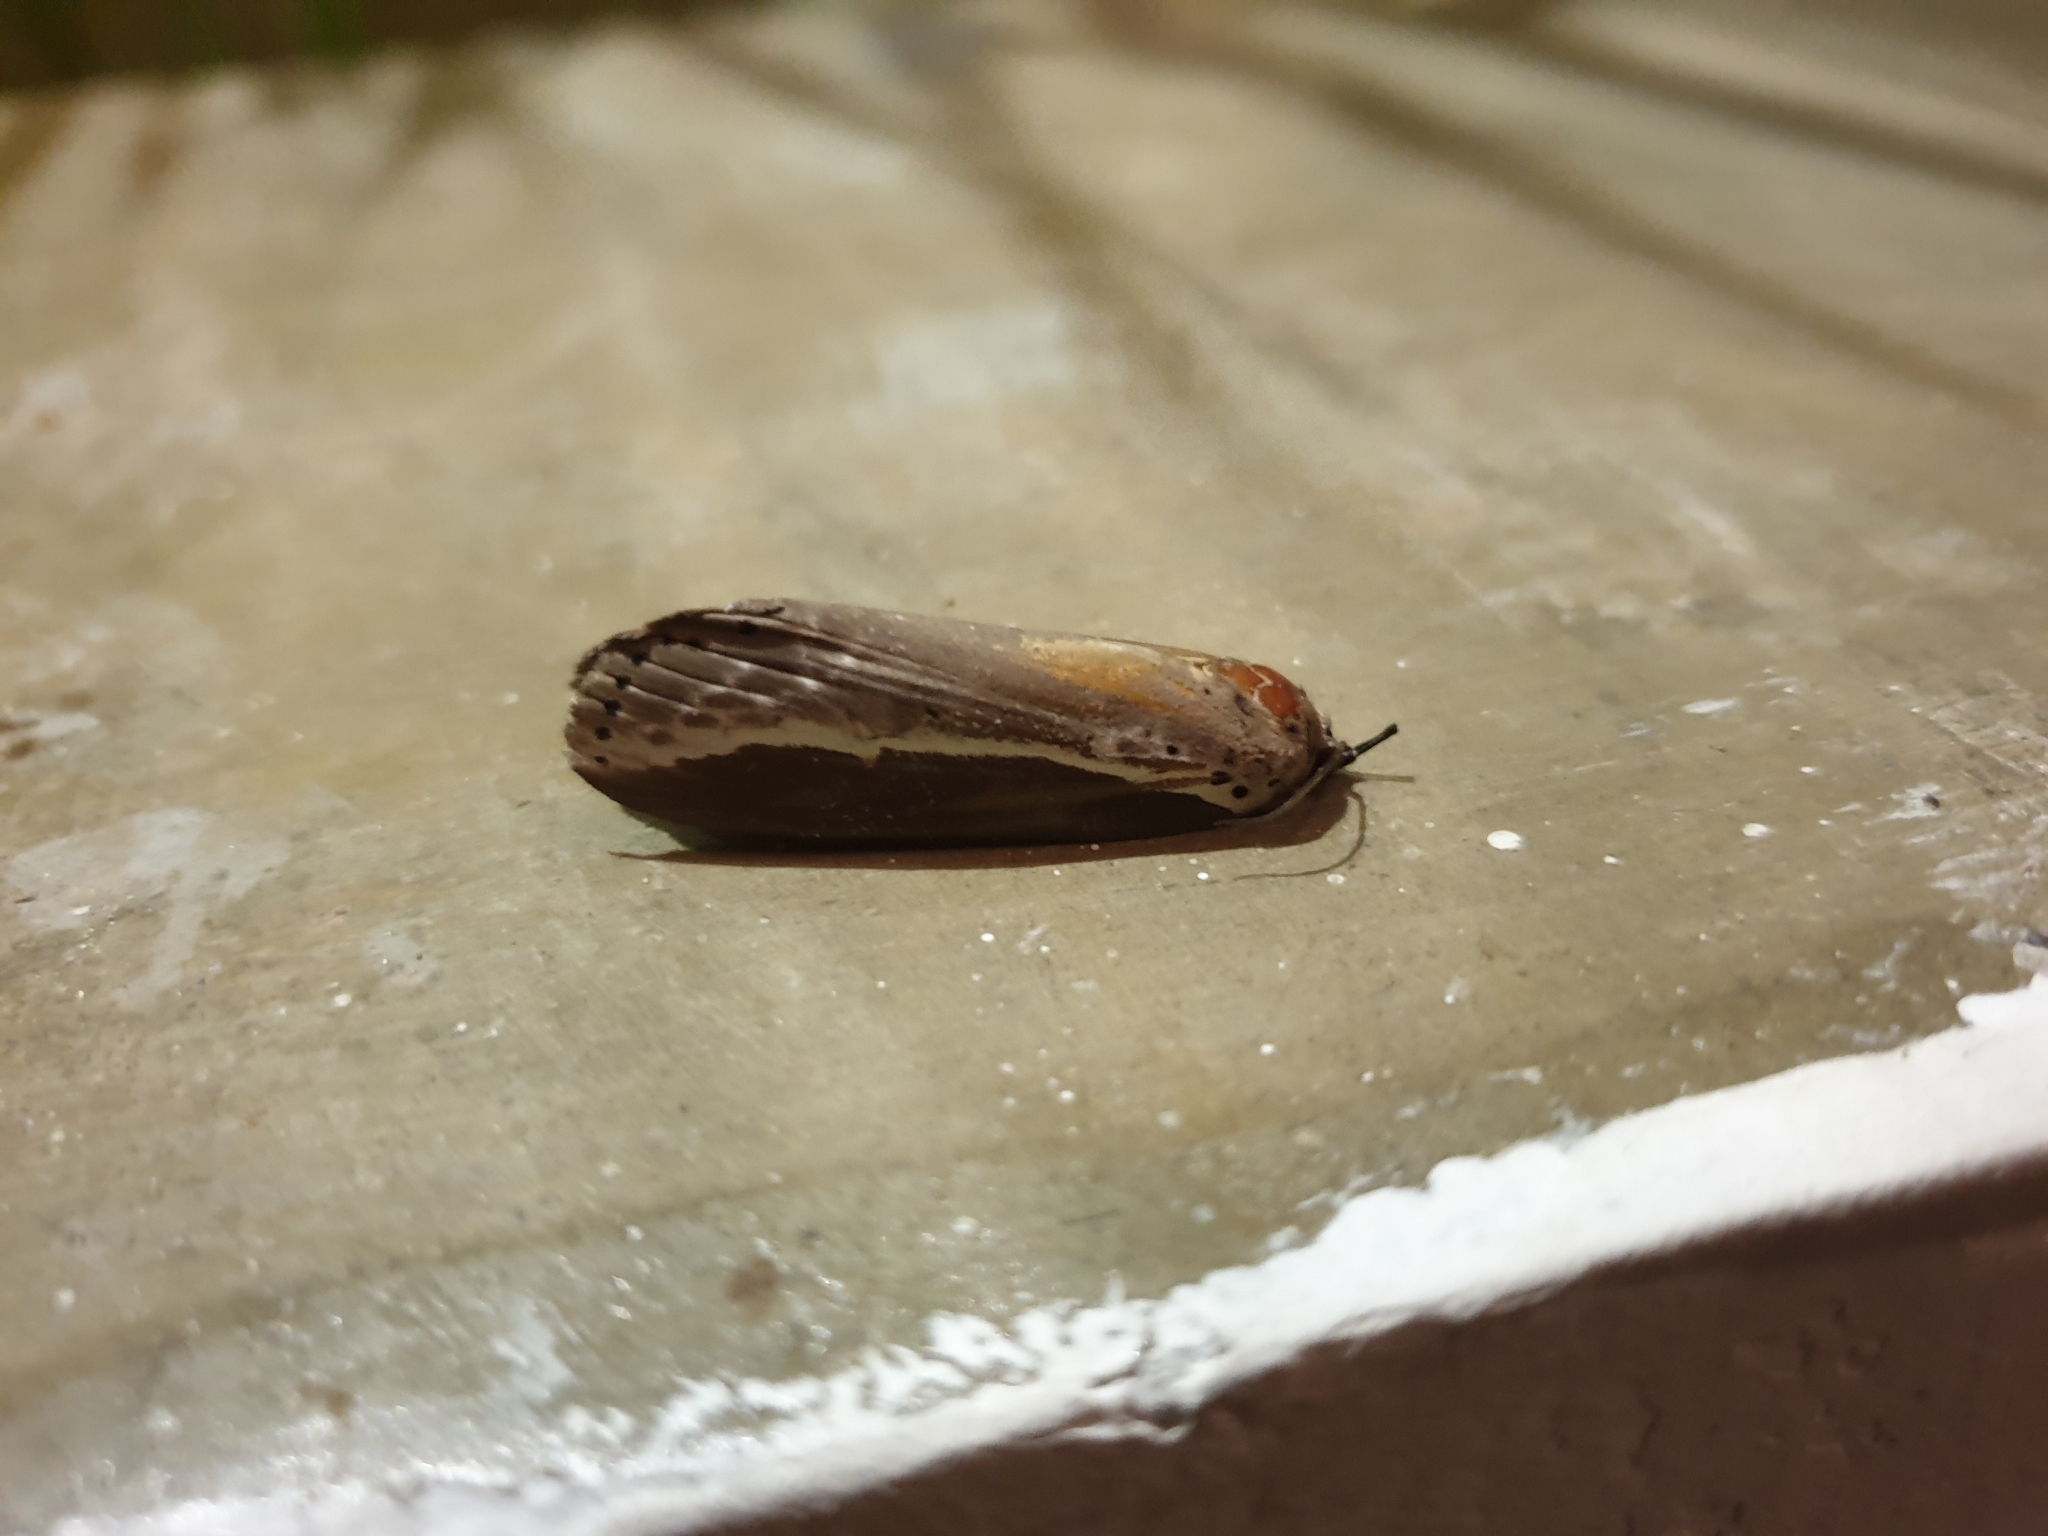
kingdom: Animalia
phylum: Arthropoda
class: Insecta
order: Lepidoptera
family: Nolidae
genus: Eligma
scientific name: Eligma narcissus
